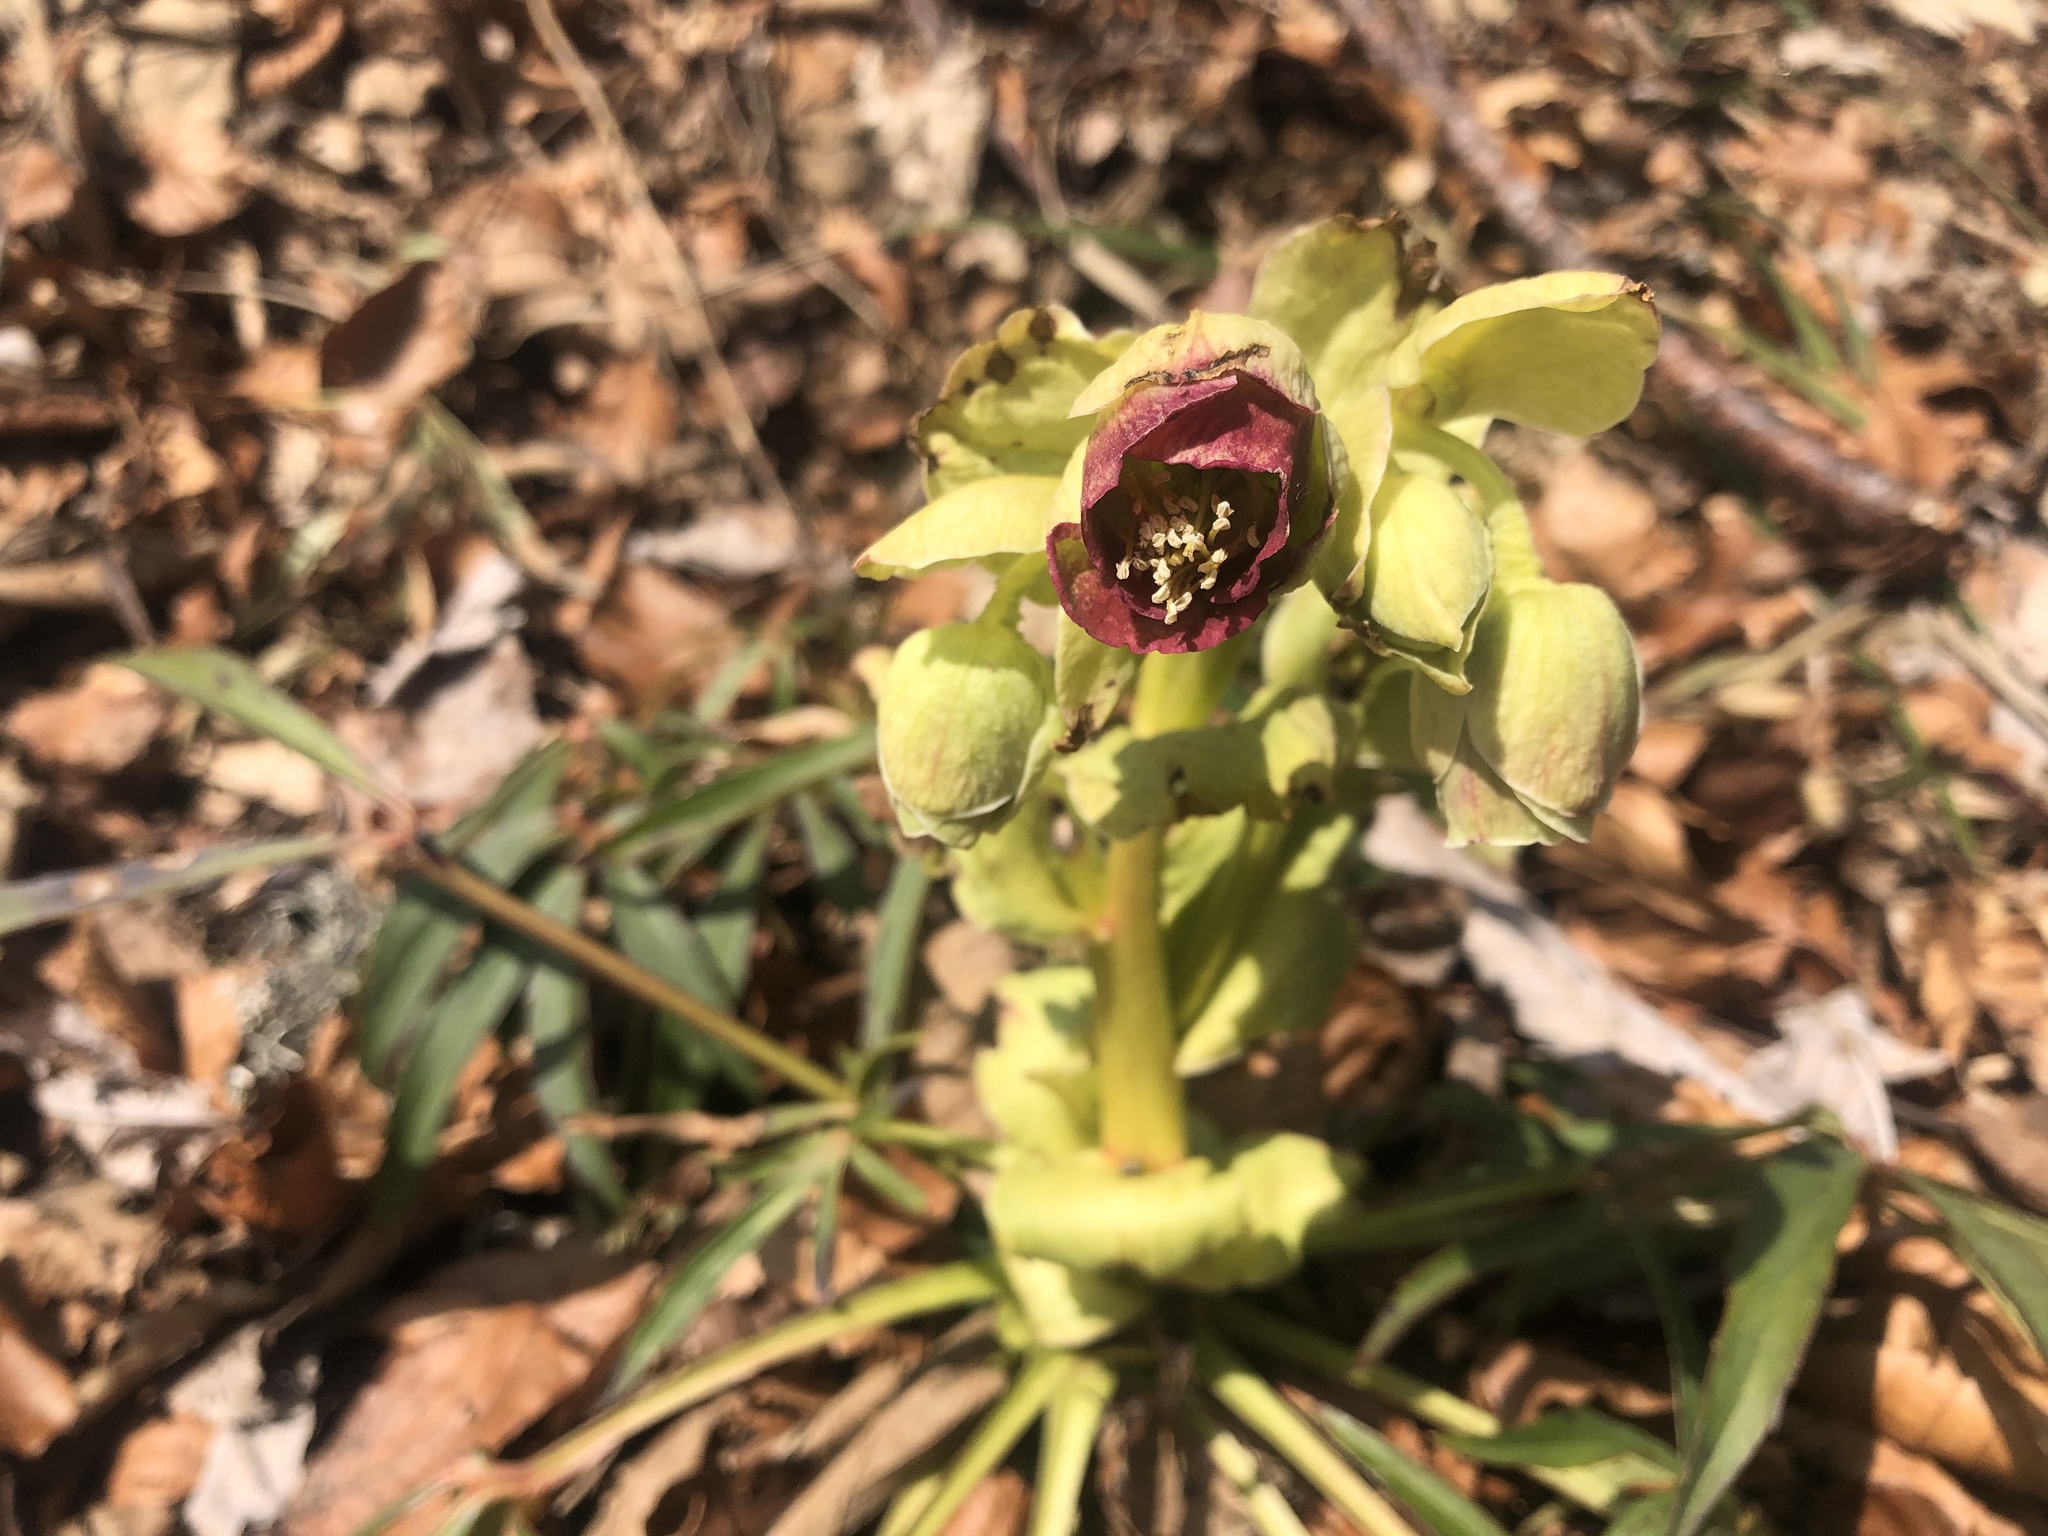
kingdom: Plantae
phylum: Tracheophyta
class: Magnoliopsida
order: Ranunculales
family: Ranunculaceae
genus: Helleborus
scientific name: Helleborus foetidus
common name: Stinking hellebore
